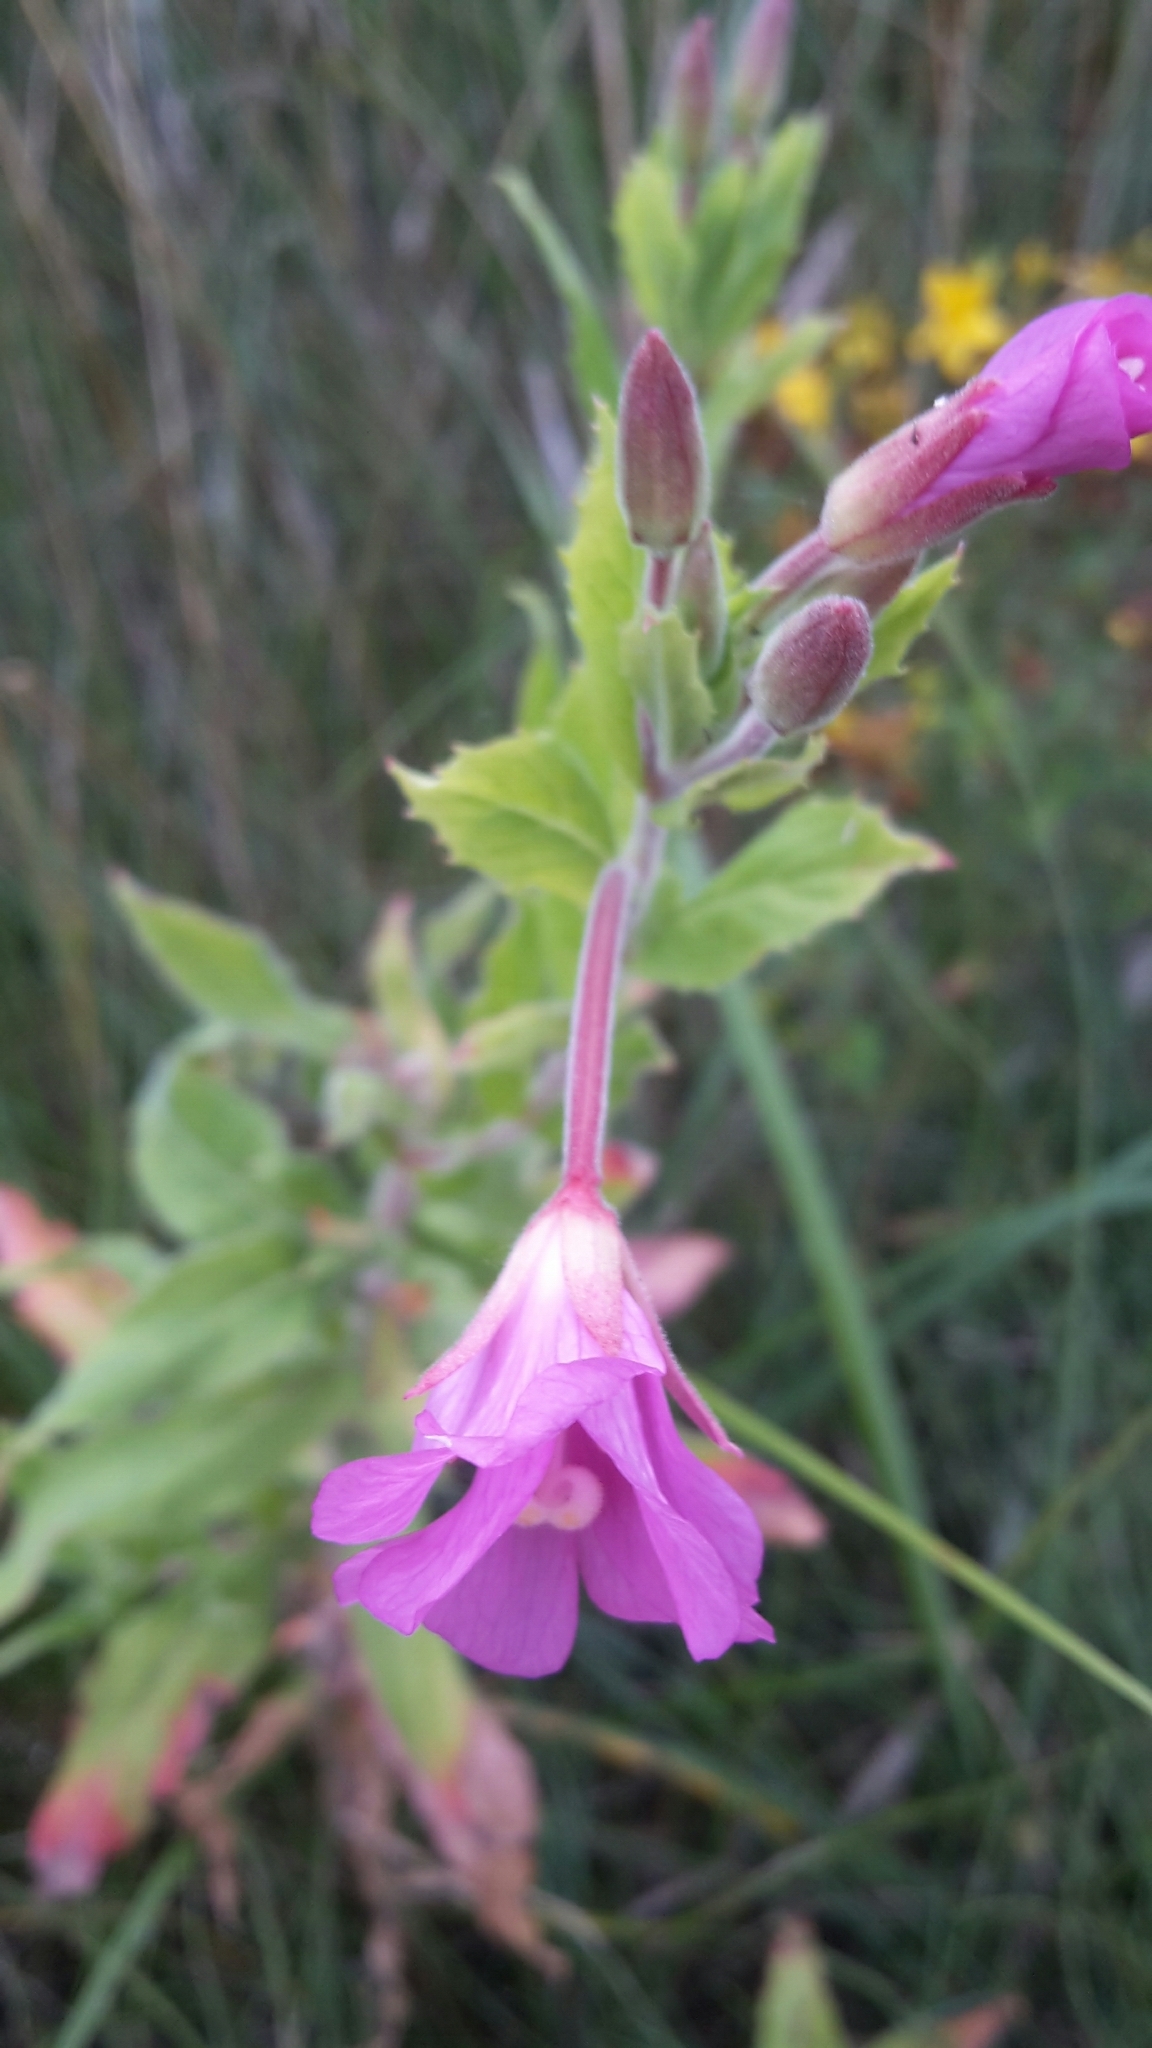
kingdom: Plantae
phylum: Tracheophyta
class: Magnoliopsida
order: Myrtales
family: Onagraceae
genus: Epilobium
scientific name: Epilobium hirsutum
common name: Great willowherb
